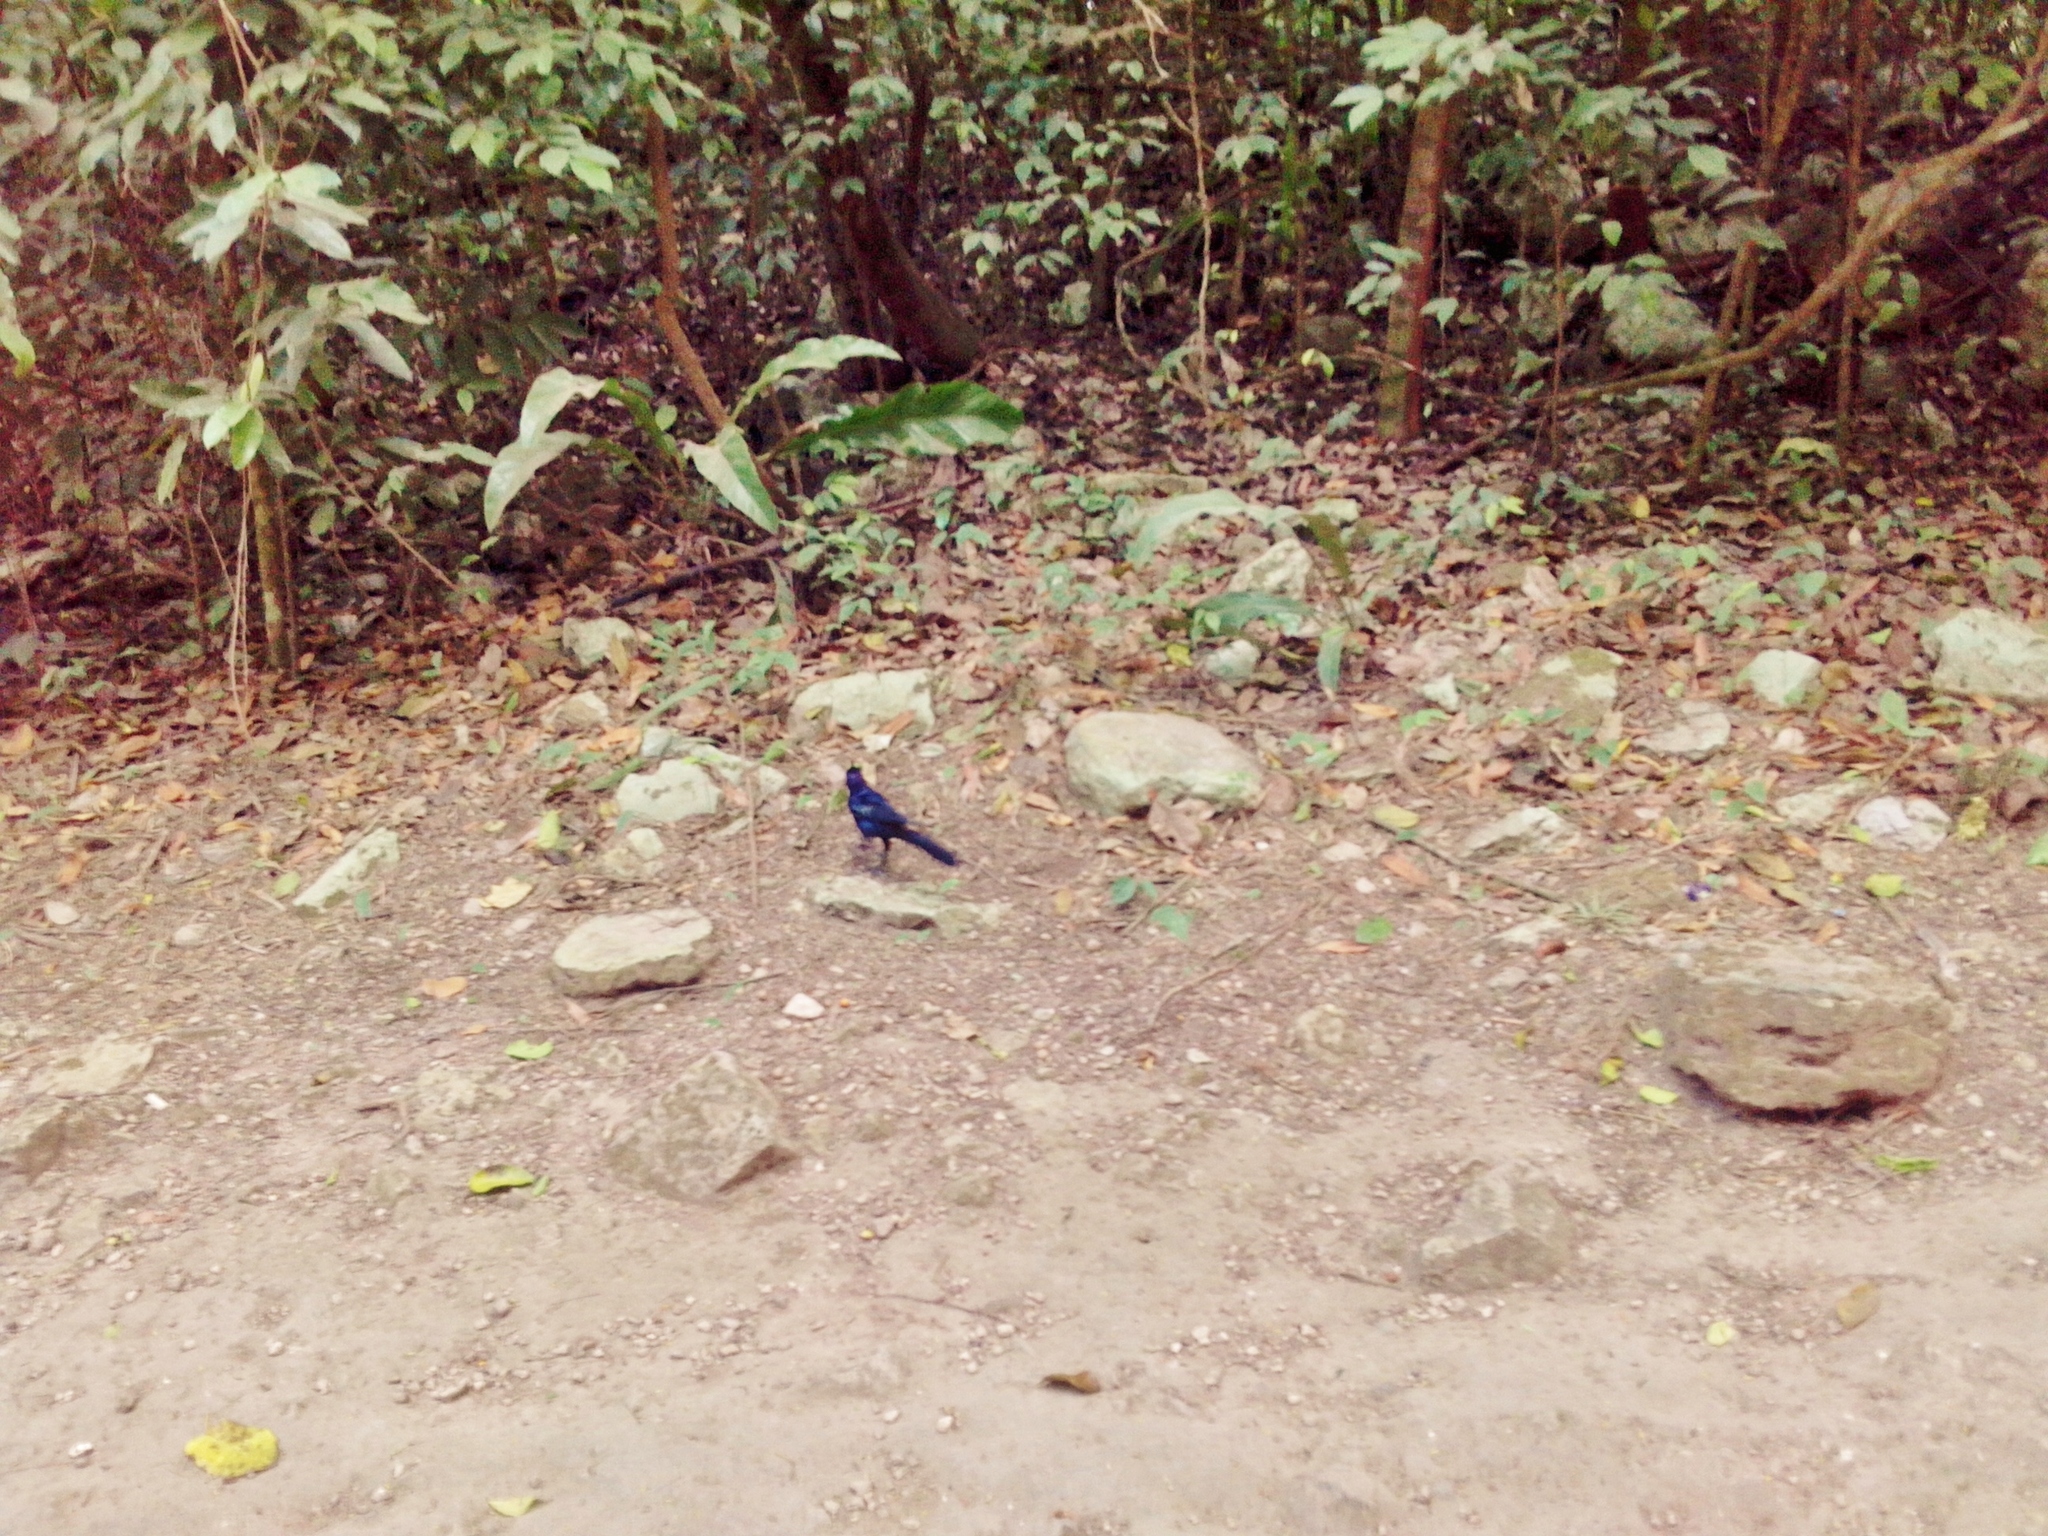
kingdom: Animalia
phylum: Chordata
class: Aves
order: Passeriformes
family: Icteridae
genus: Quiscalus
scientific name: Quiscalus mexicanus
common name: Great-tailed grackle
